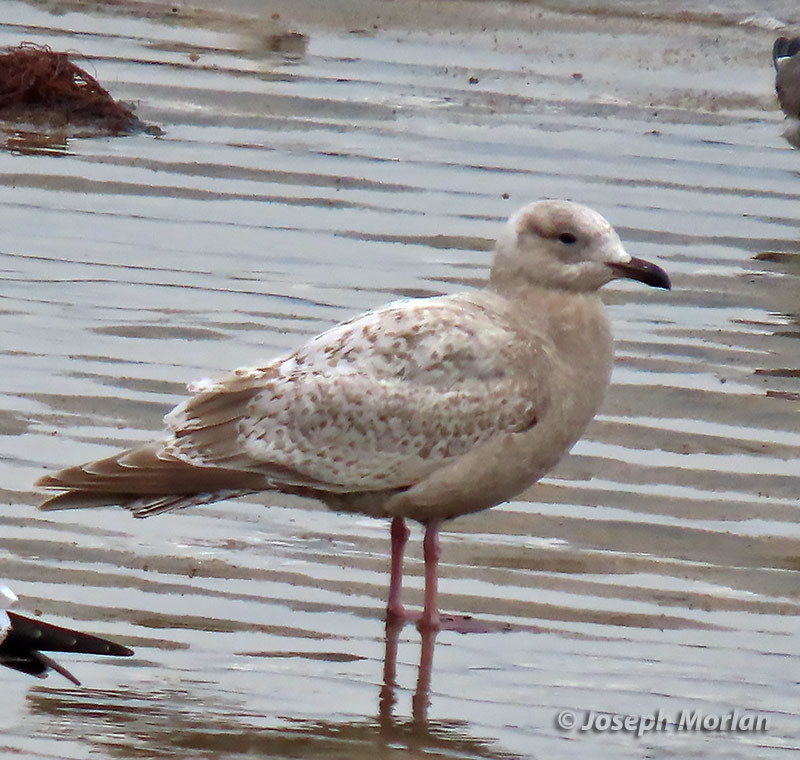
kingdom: Animalia
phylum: Chordata
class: Aves
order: Charadriiformes
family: Laridae
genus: Larus
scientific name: Larus glaucoides
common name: Iceland gull
